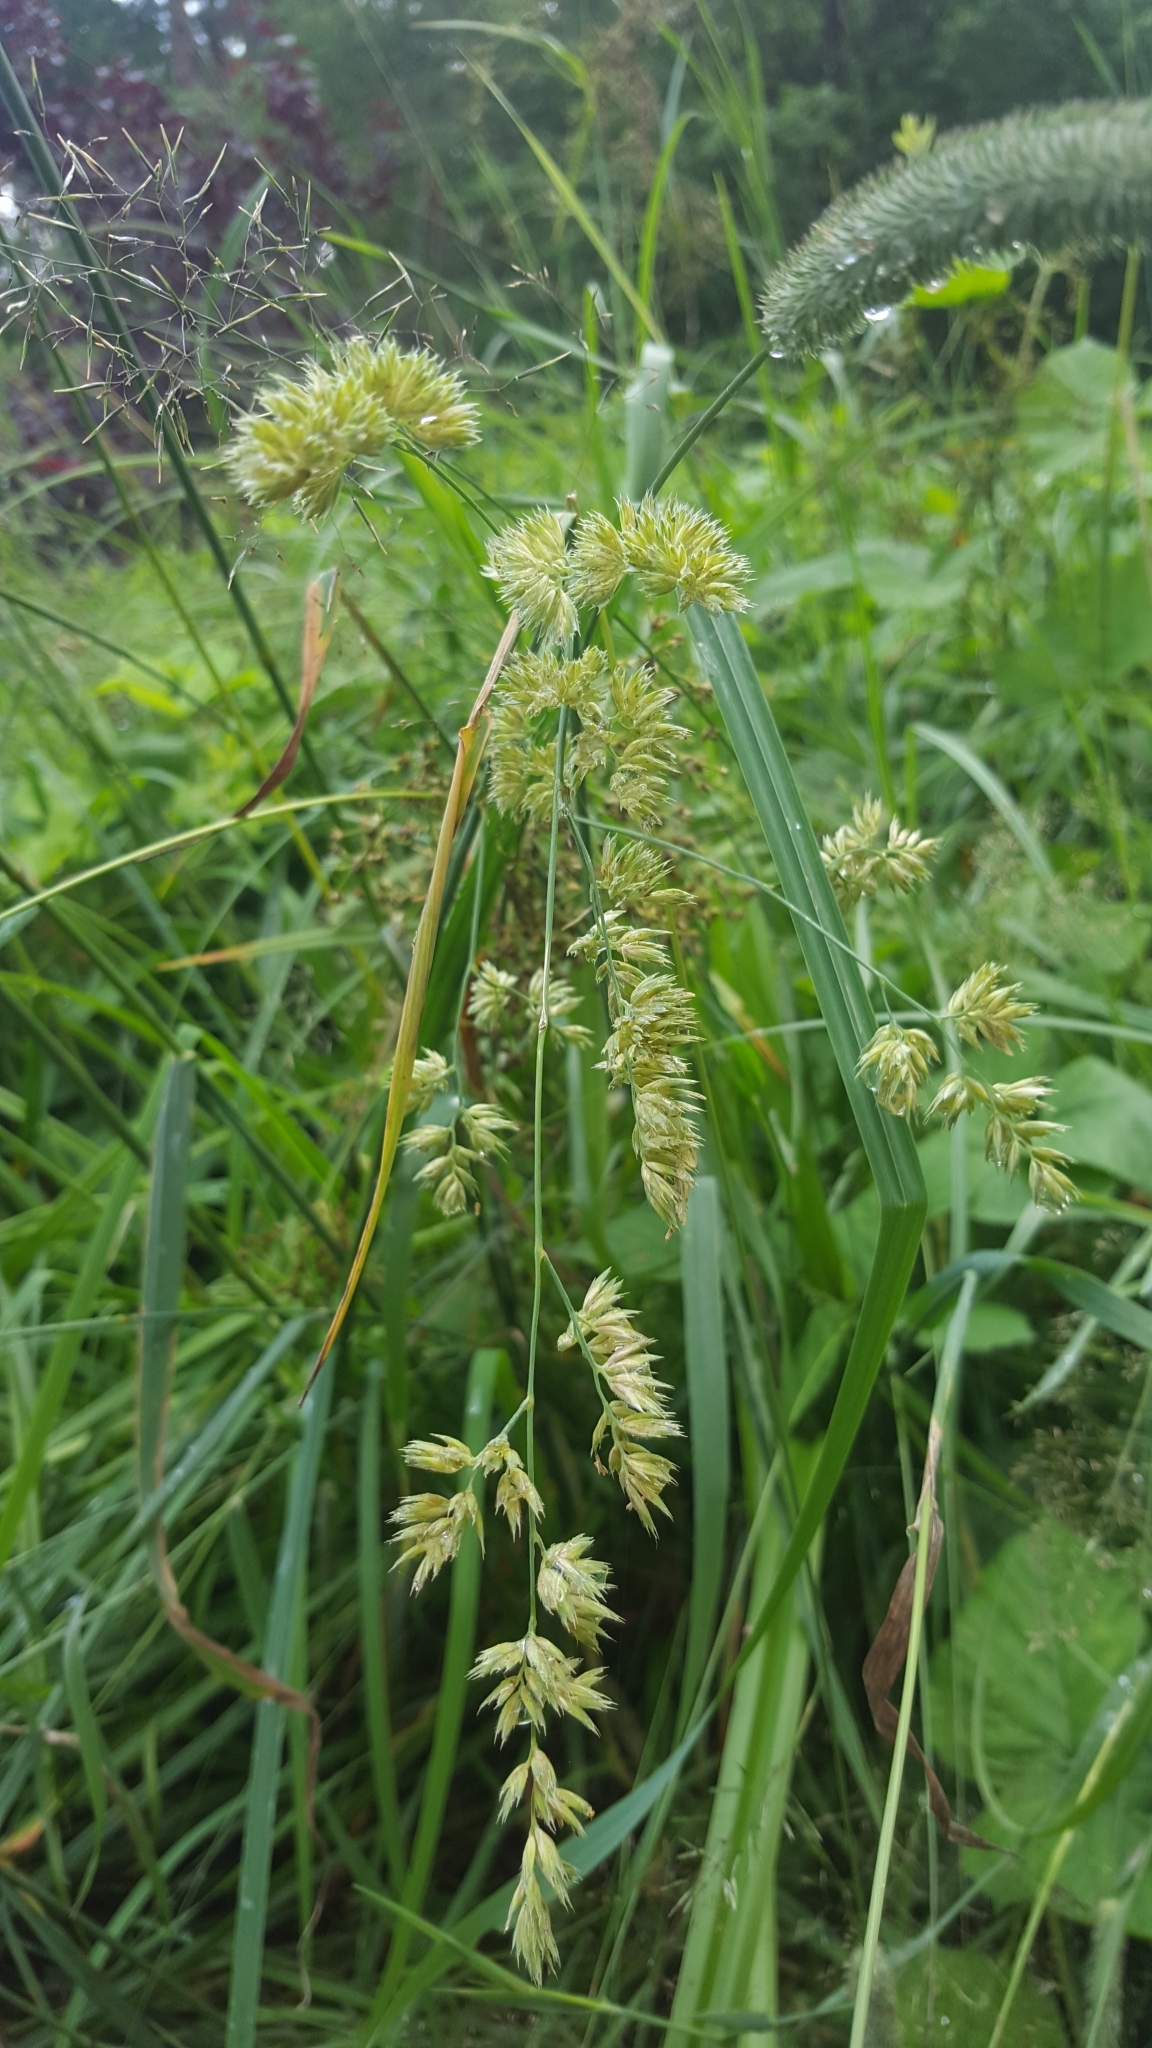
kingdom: Plantae
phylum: Tracheophyta
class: Liliopsida
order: Poales
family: Poaceae
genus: Dactylis
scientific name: Dactylis glomerata
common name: Orchardgrass
